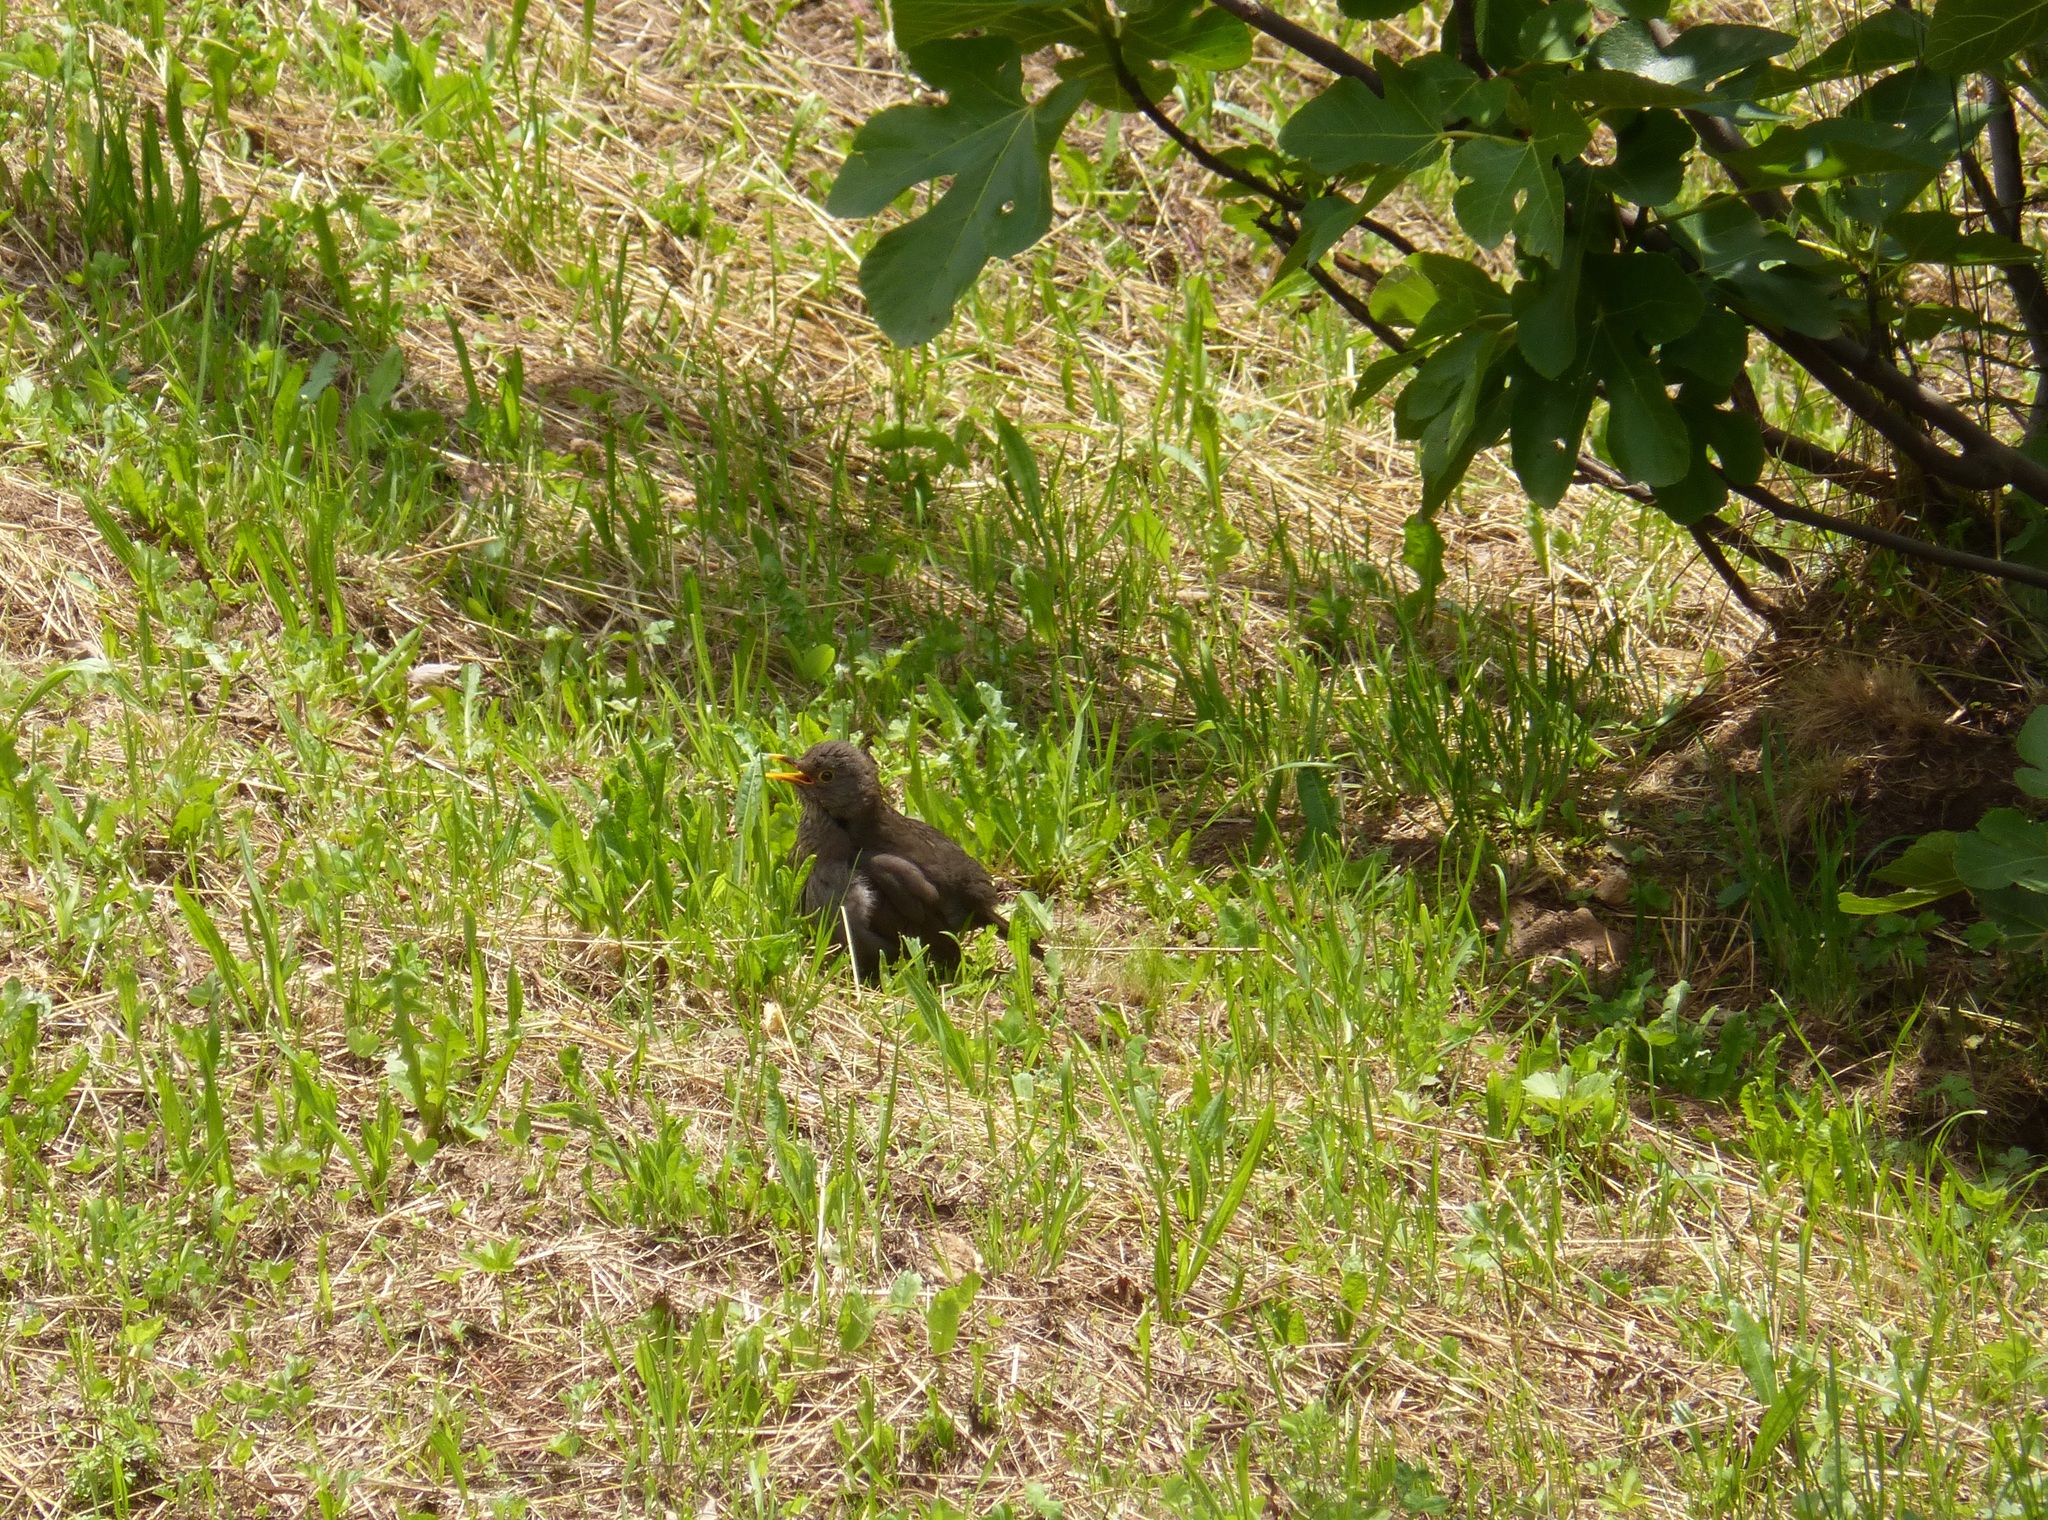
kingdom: Animalia
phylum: Chordata
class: Aves
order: Passeriformes
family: Turdidae
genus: Turdus
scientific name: Turdus merula
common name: Common blackbird
